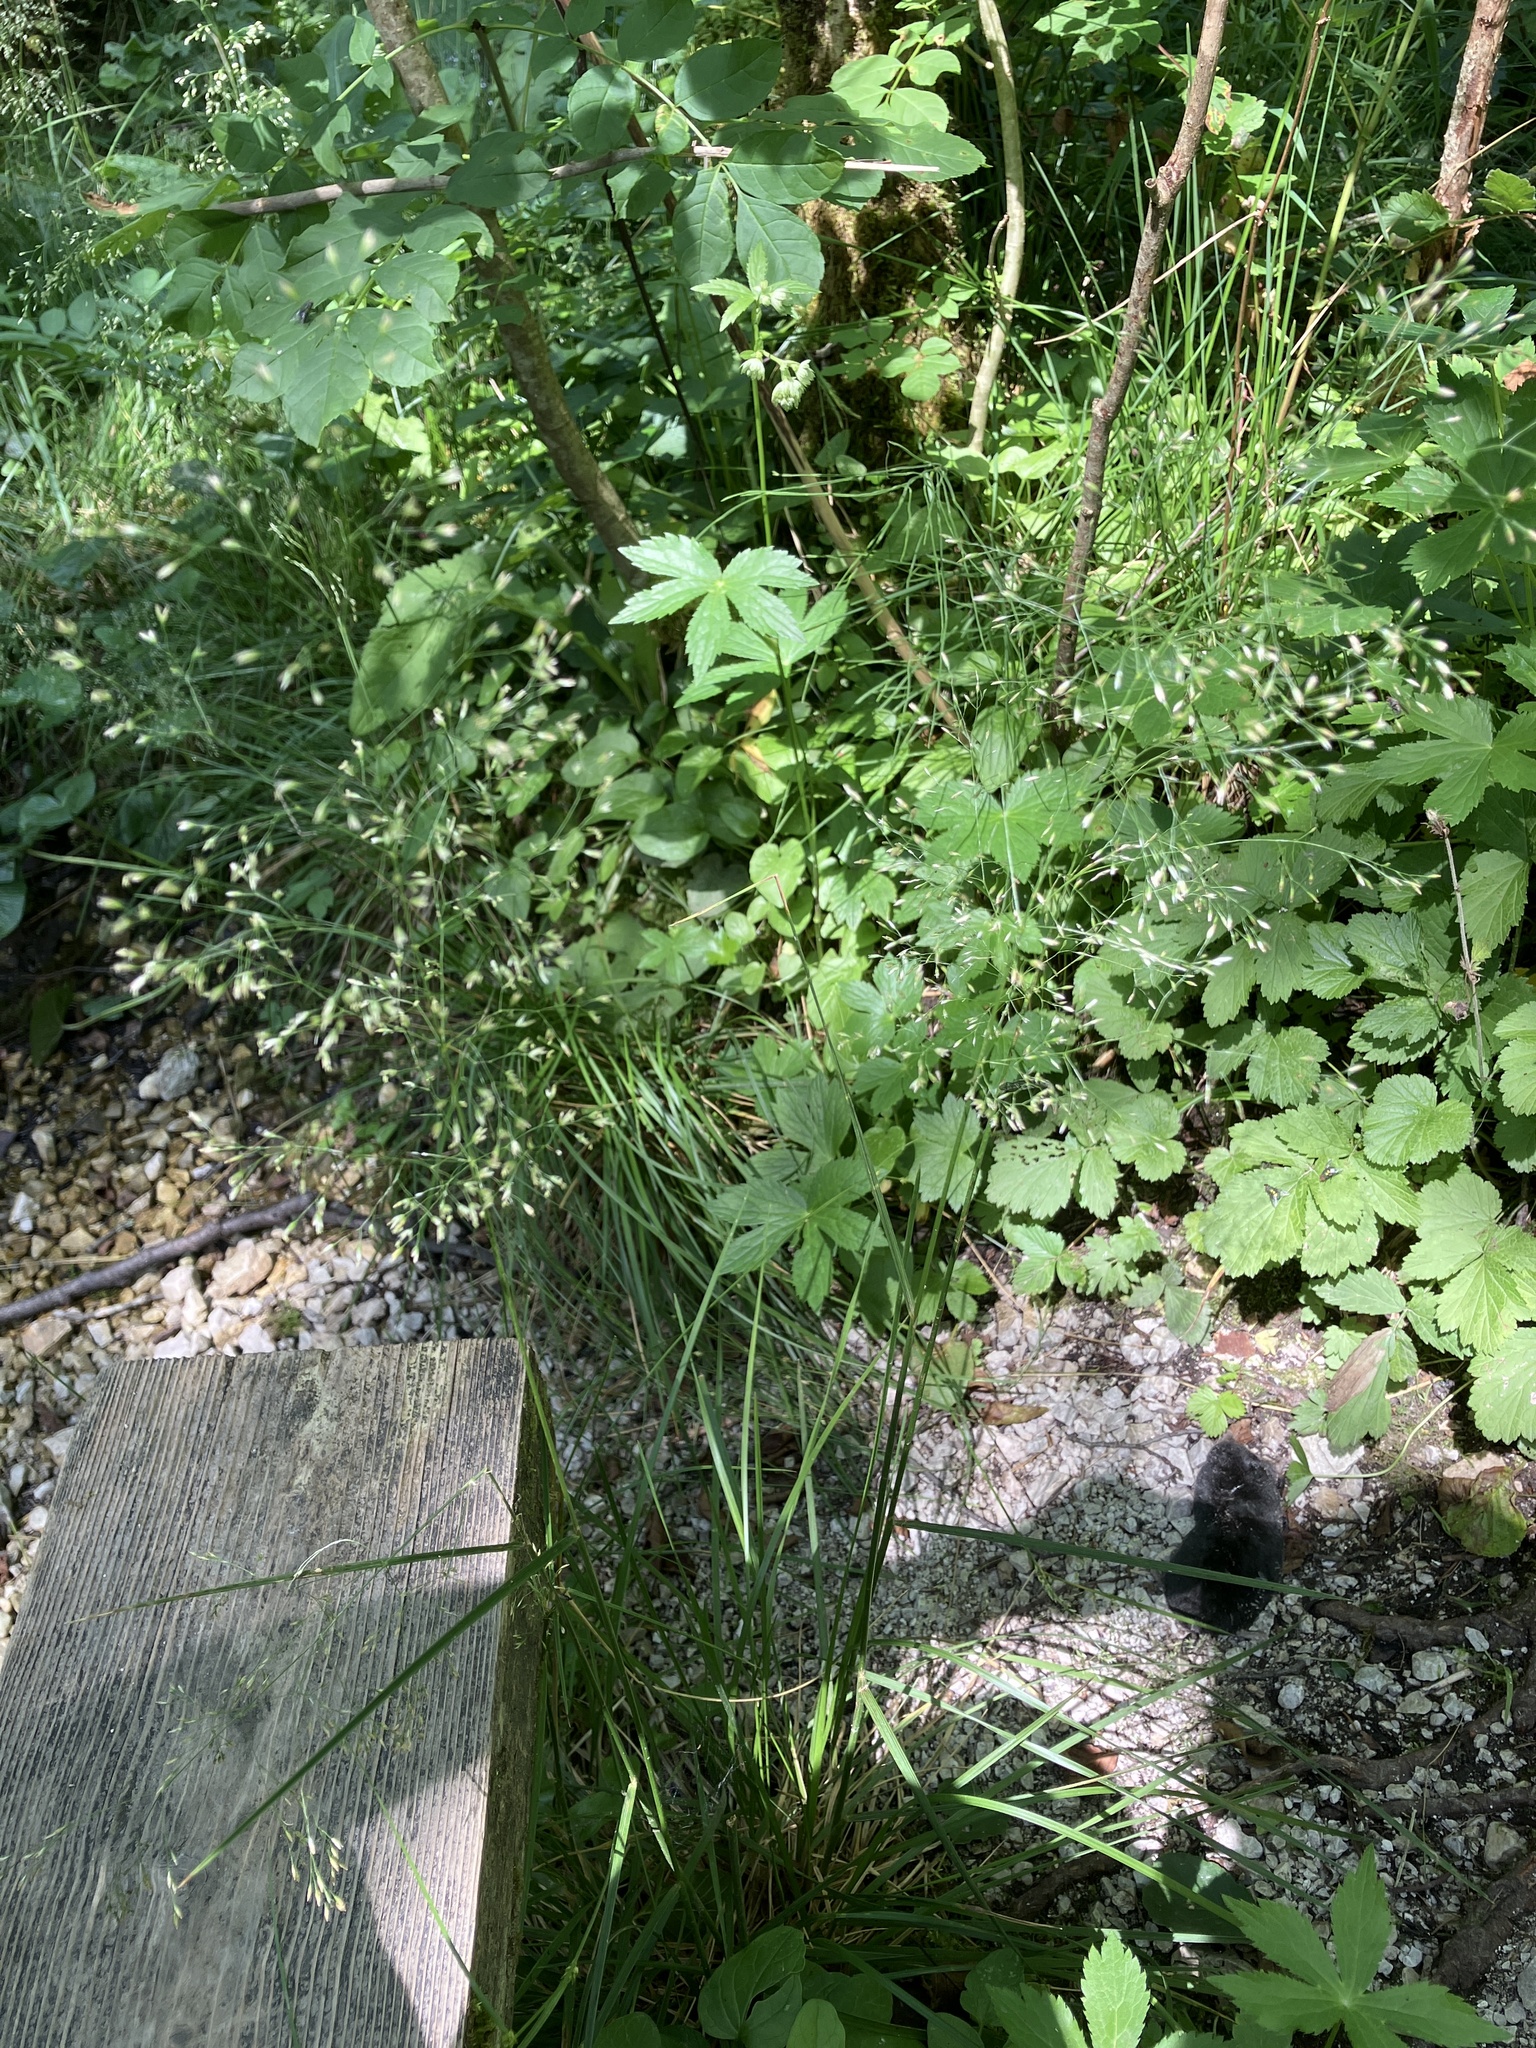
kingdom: Plantae
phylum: Tracheophyta
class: Liliopsida
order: Poales
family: Poaceae
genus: Deschampsia
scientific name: Deschampsia cespitosa
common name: Tufted hair-grass
